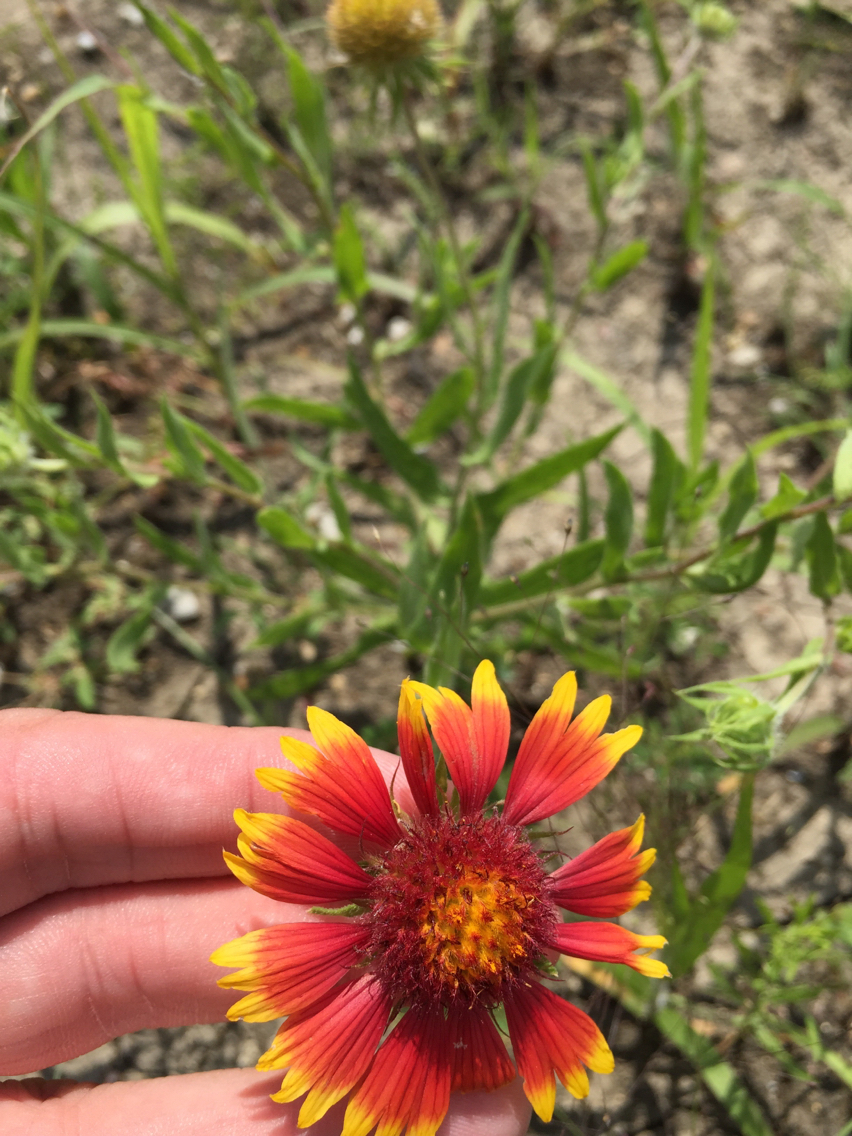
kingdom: Plantae
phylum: Tracheophyta
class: Magnoliopsida
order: Asterales
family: Asteraceae
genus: Gaillardia
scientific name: Gaillardia pulchella
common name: Firewheel
